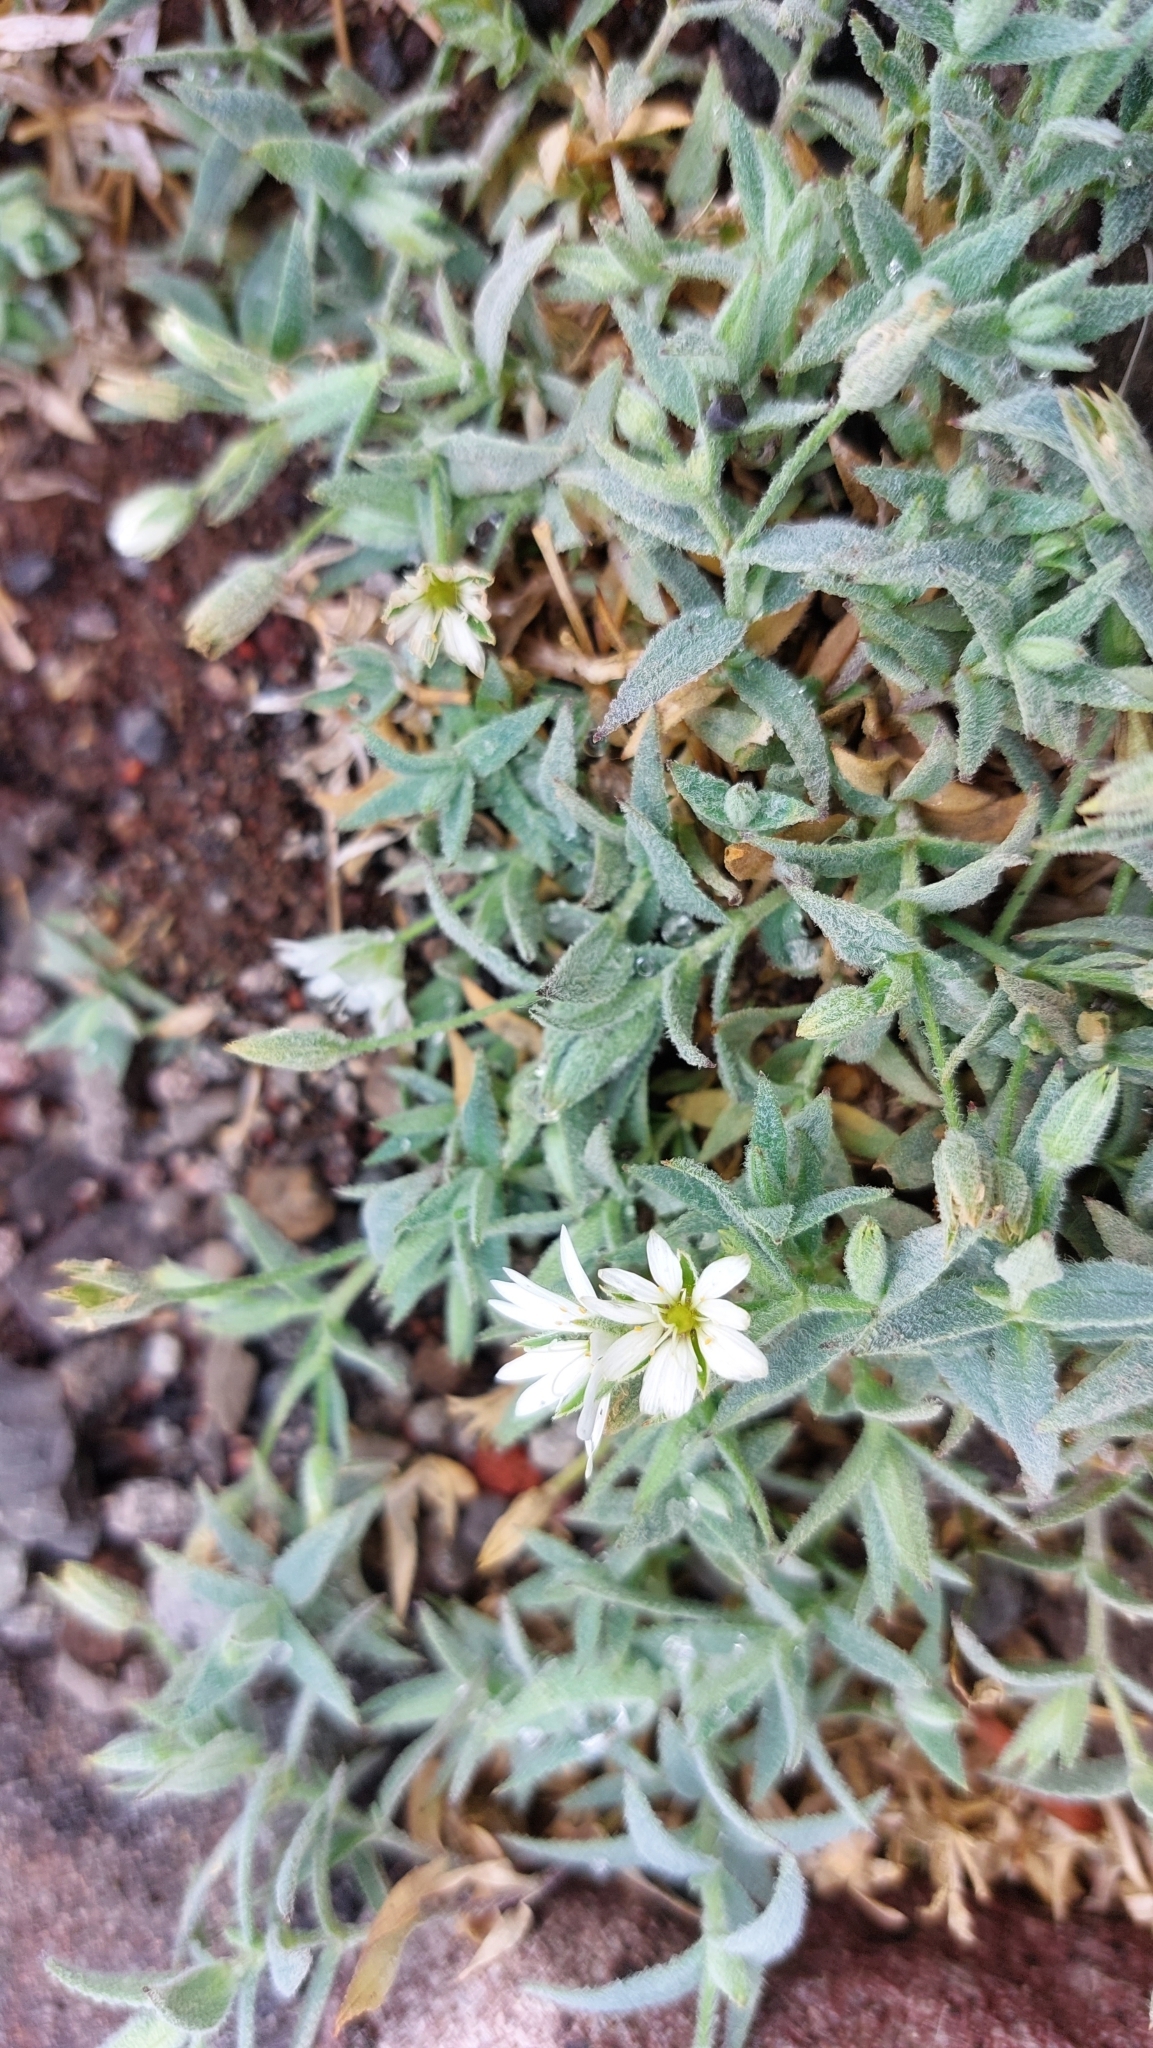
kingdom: Plantae
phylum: Tracheophyta
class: Magnoliopsida
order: Caryophyllales
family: Caryophyllaceae
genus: Stellaria
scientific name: Stellaria eschscholtziana
